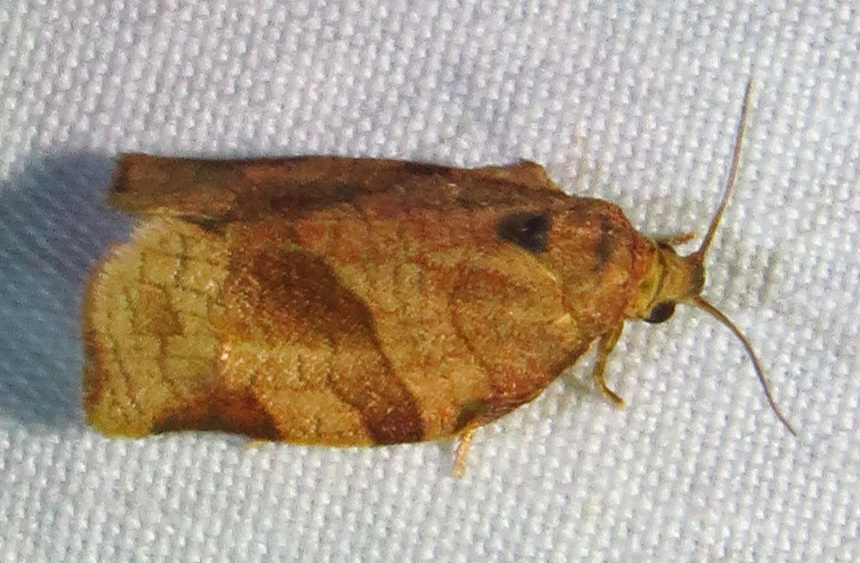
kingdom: Animalia
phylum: Arthropoda
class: Insecta
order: Lepidoptera
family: Tortricidae
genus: Choristoneura
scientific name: Choristoneura rosaceana
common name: Oblique-banded leafroller moth
